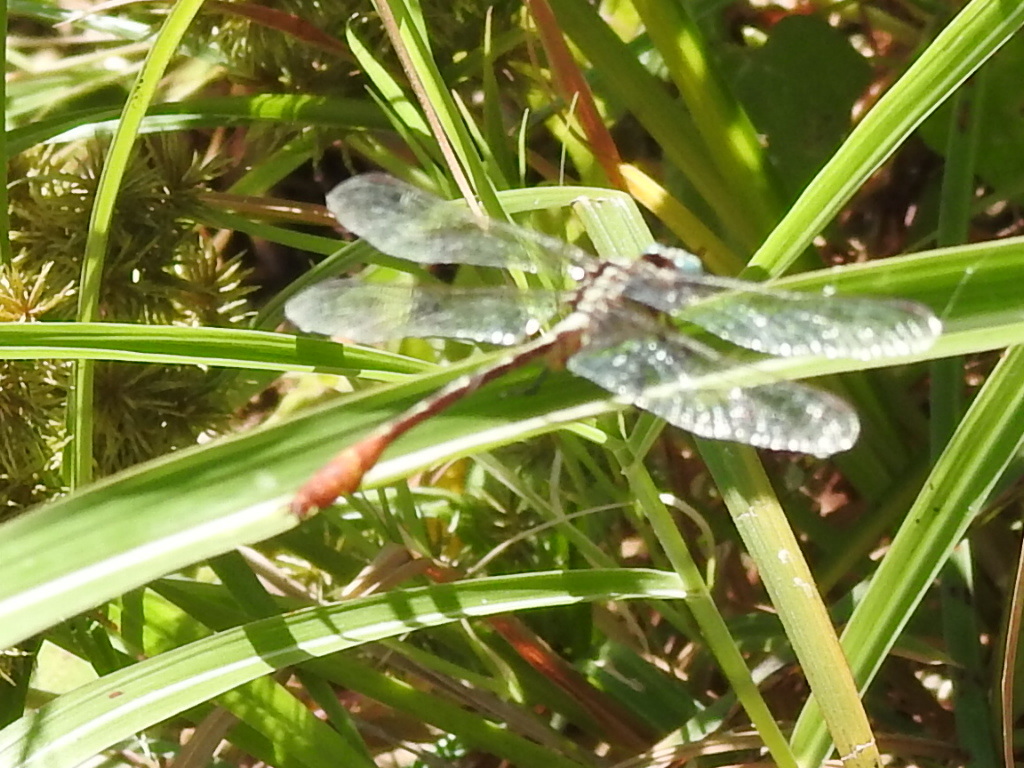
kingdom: Animalia
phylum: Arthropoda
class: Insecta
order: Odonata
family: Gomphidae
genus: Stylurus
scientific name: Stylurus plagiatus
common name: Russet-tipped clubtail
